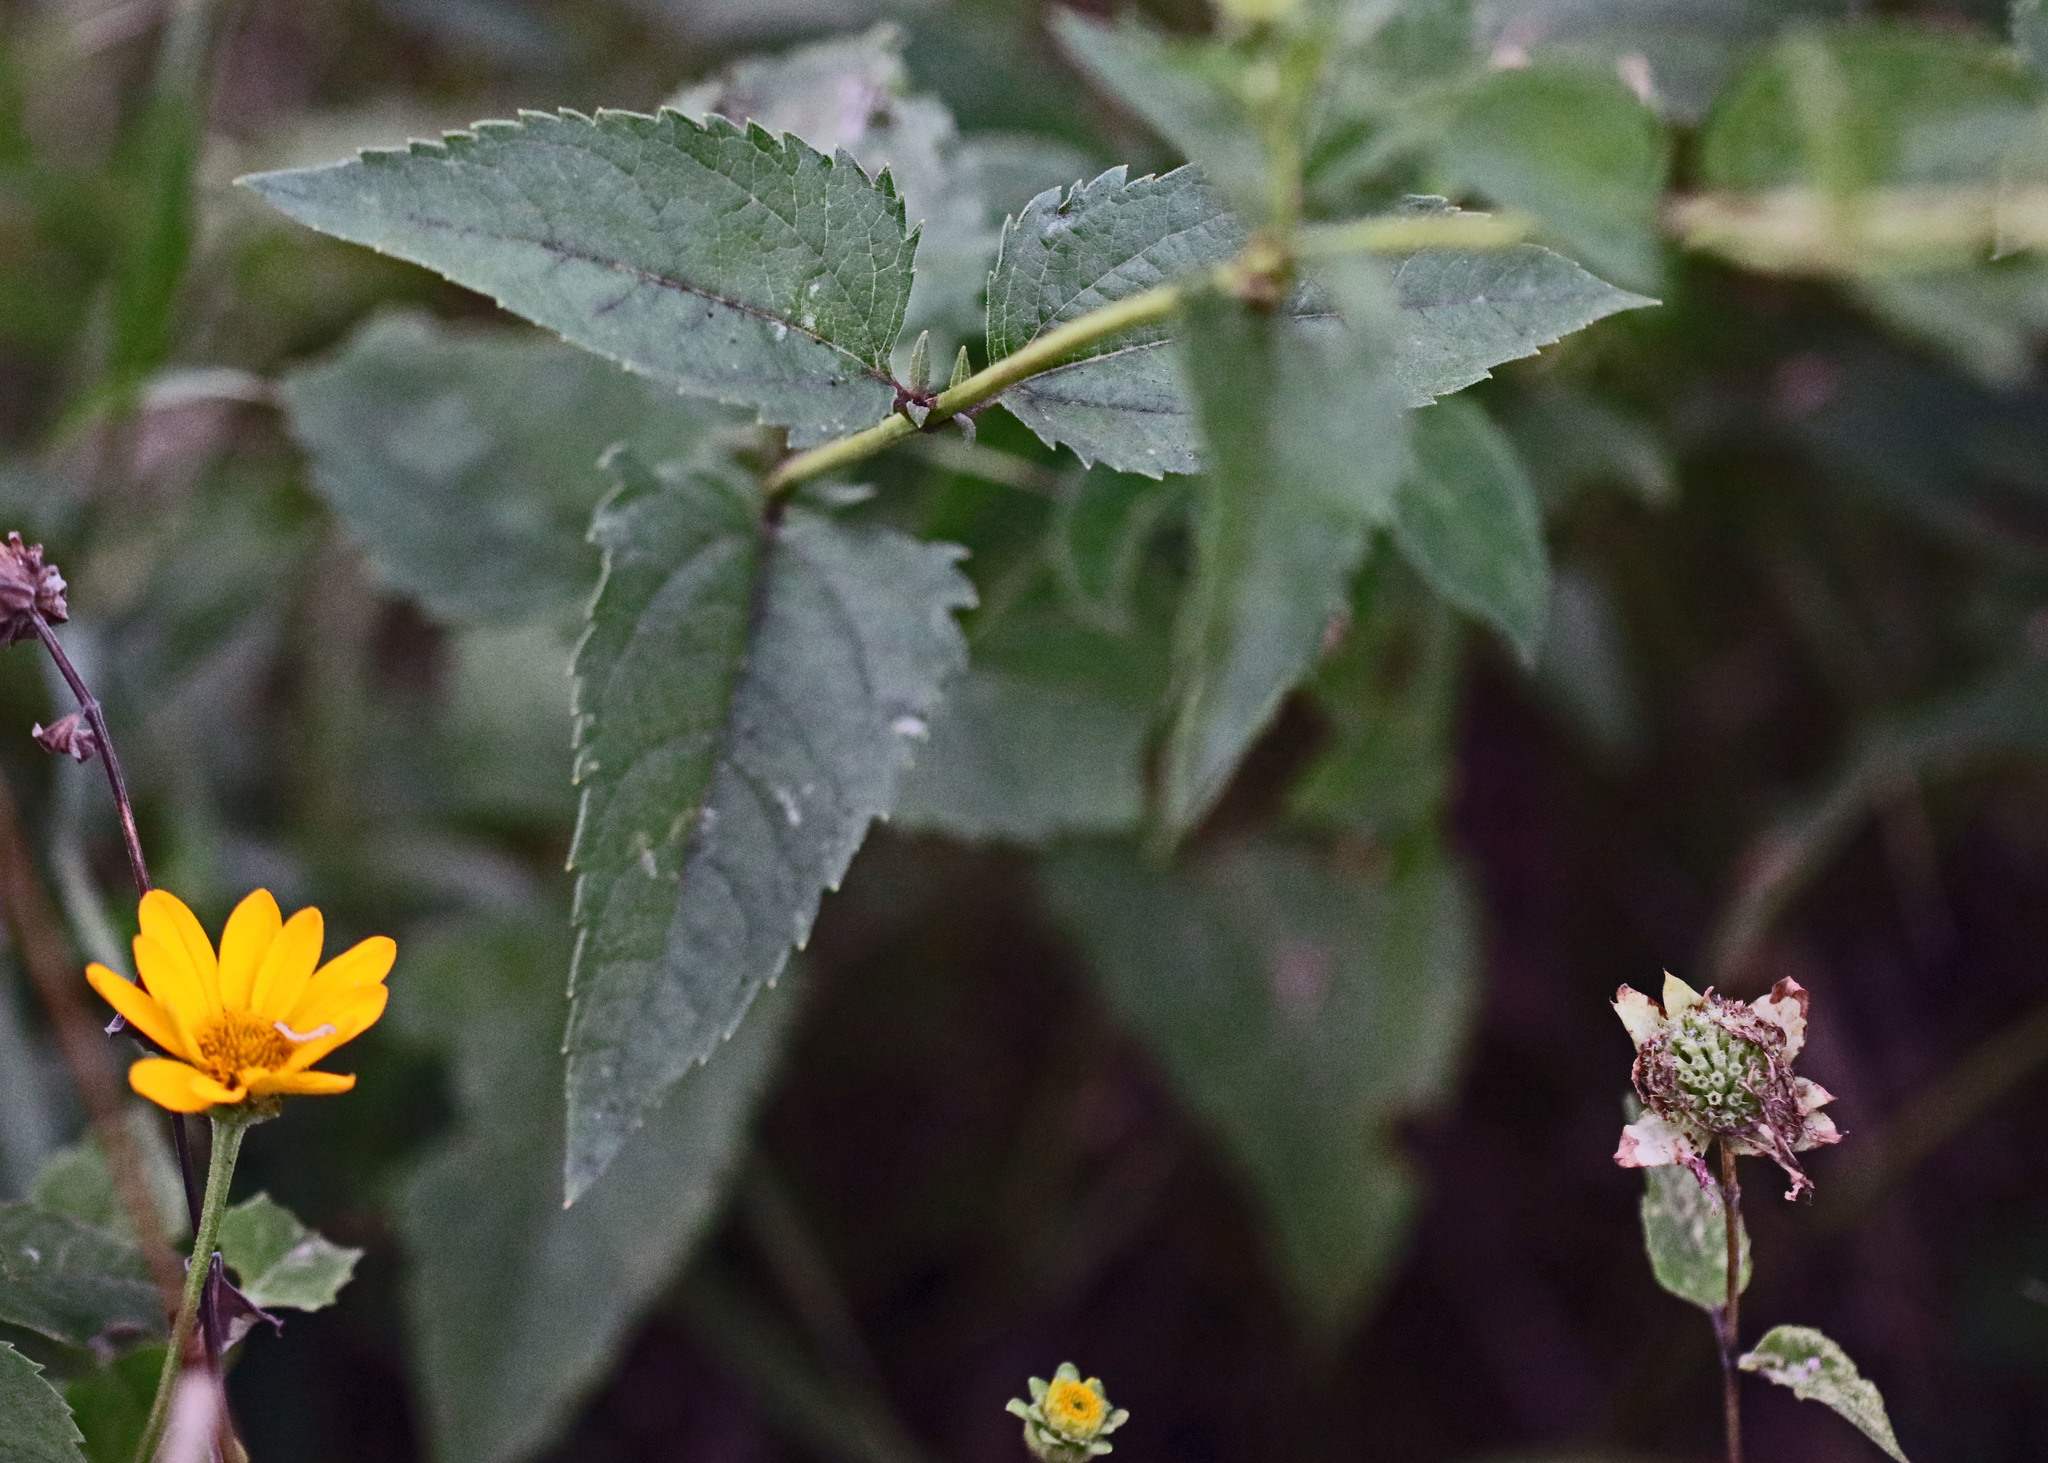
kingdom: Plantae
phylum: Tracheophyta
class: Magnoliopsida
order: Asterales
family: Asteraceae
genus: Heliopsis
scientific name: Heliopsis helianthoides
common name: False sunflower
